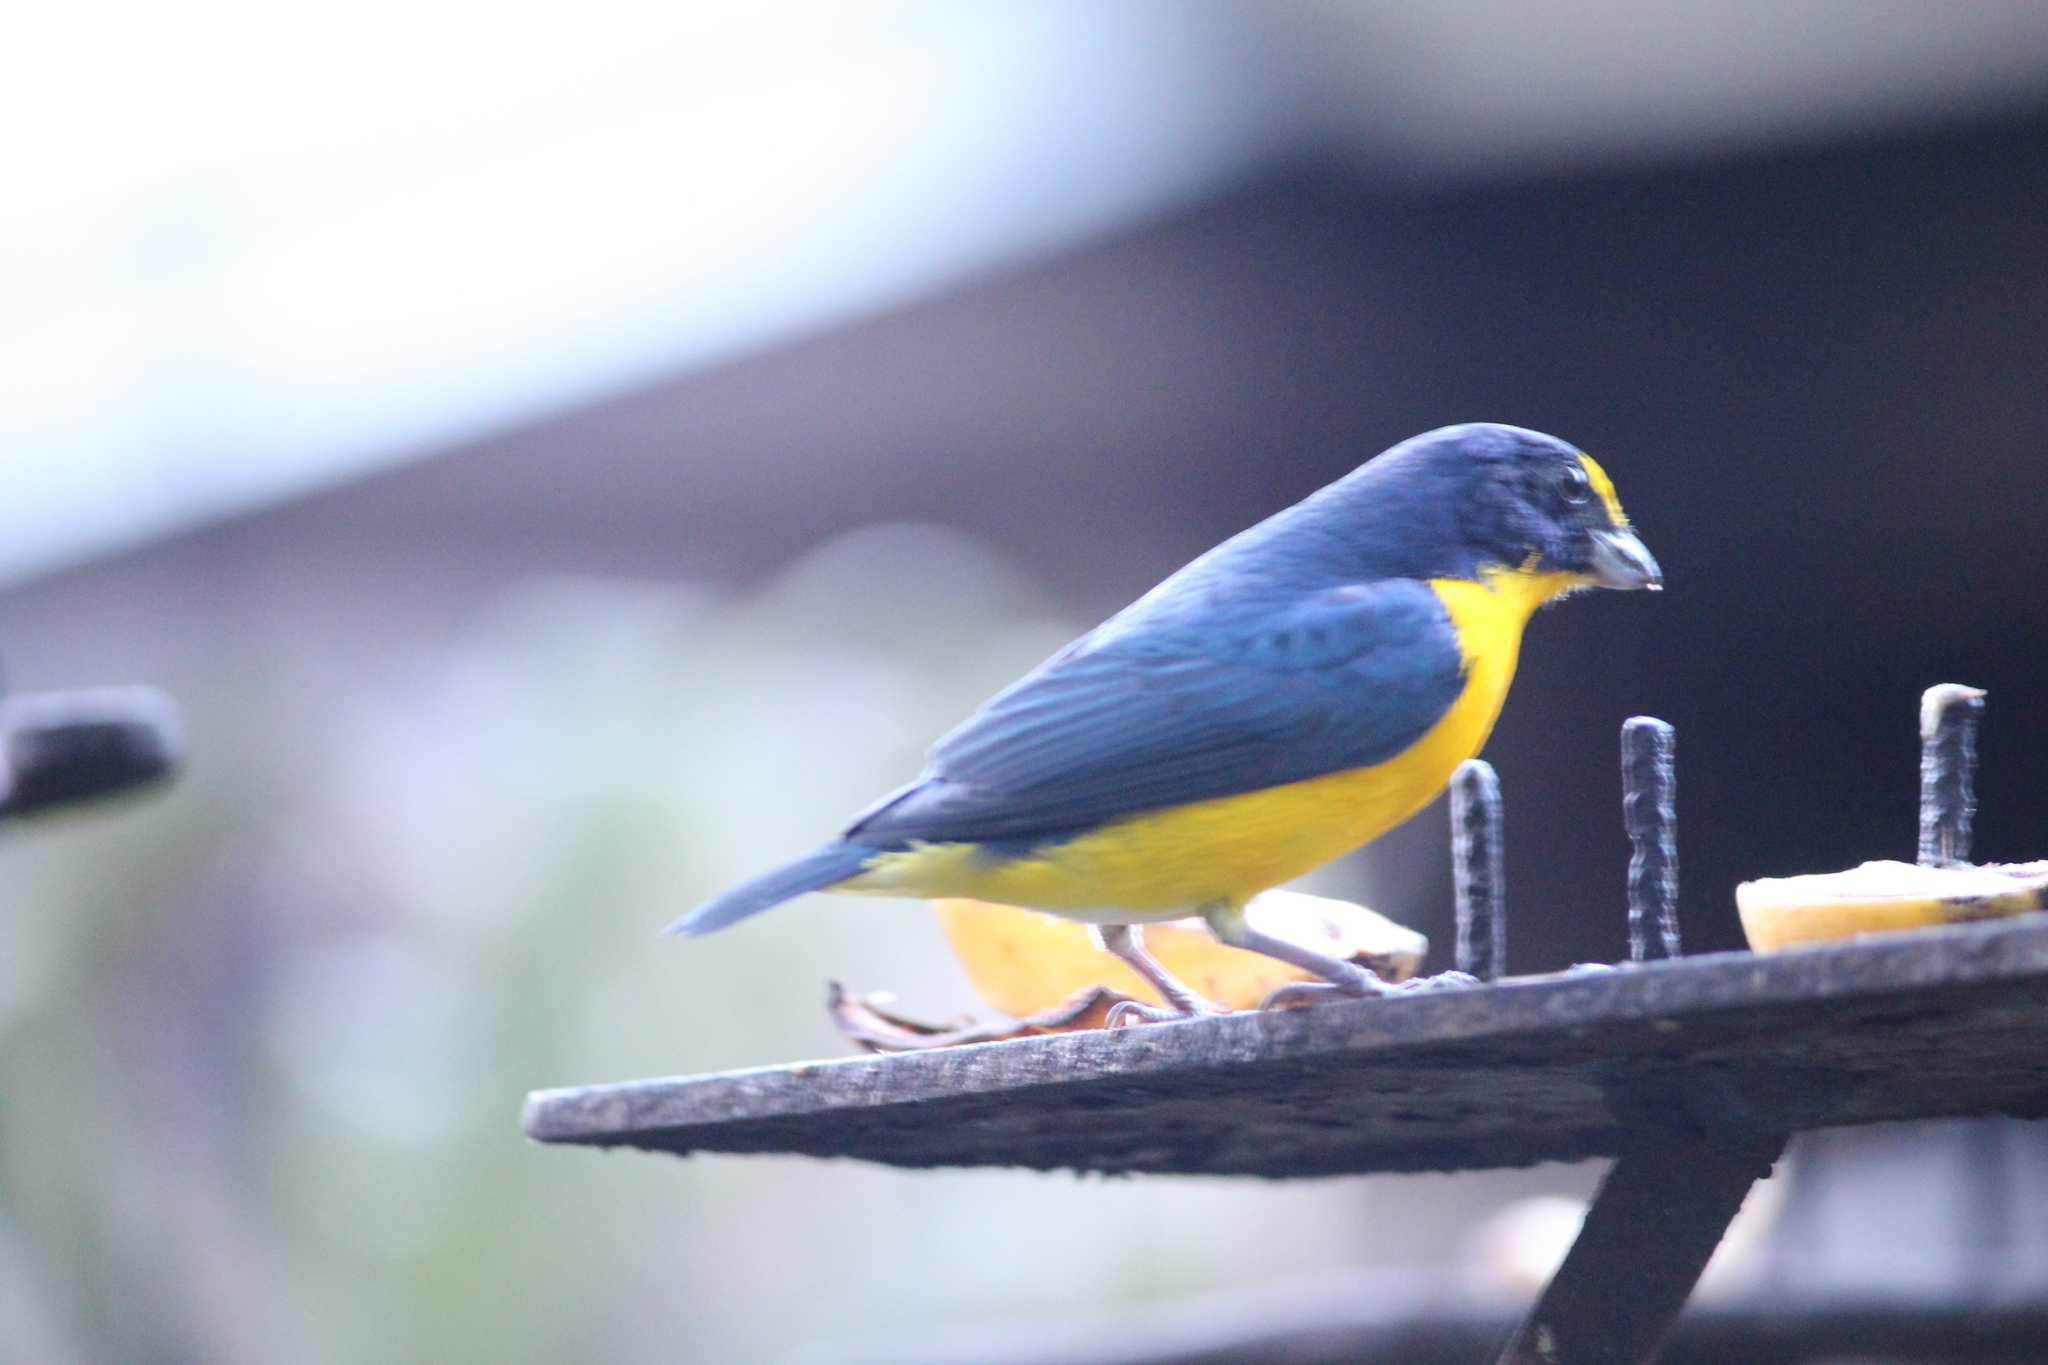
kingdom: Animalia
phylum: Chordata
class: Aves
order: Passeriformes
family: Fringillidae
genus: Euphonia
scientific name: Euphonia hirundinacea
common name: Yellow-throated euphonia
